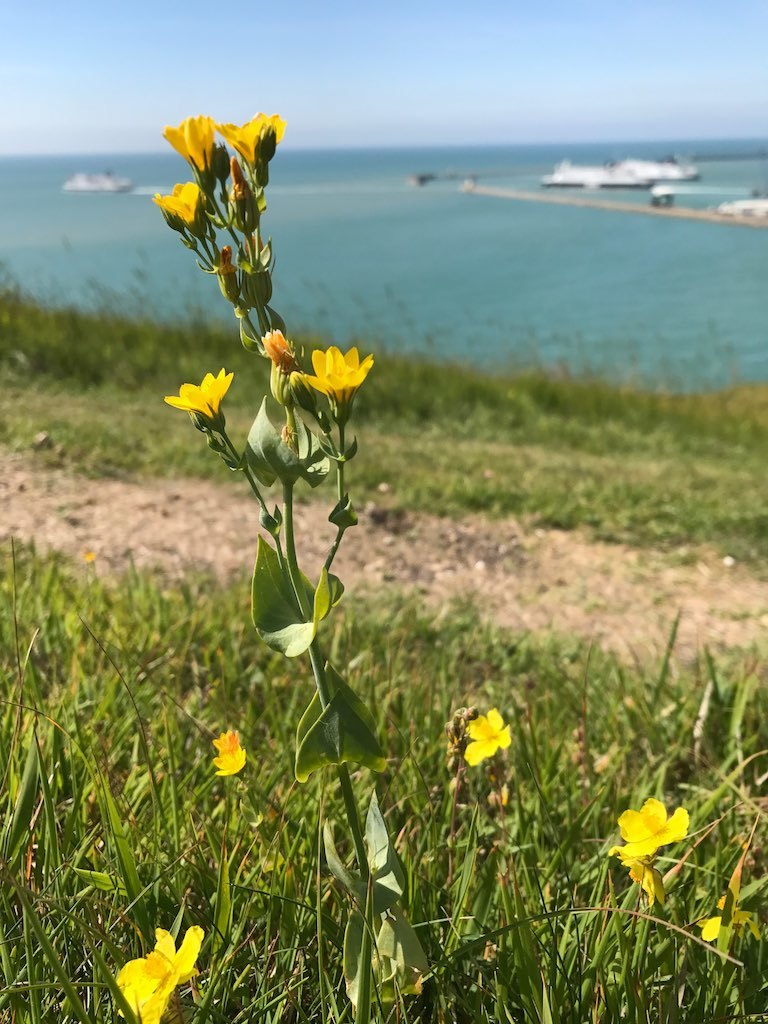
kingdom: Plantae
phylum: Tracheophyta
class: Magnoliopsida
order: Gentianales
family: Gentianaceae
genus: Blackstonia
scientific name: Blackstonia perfoliata
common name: Yellow-wort
